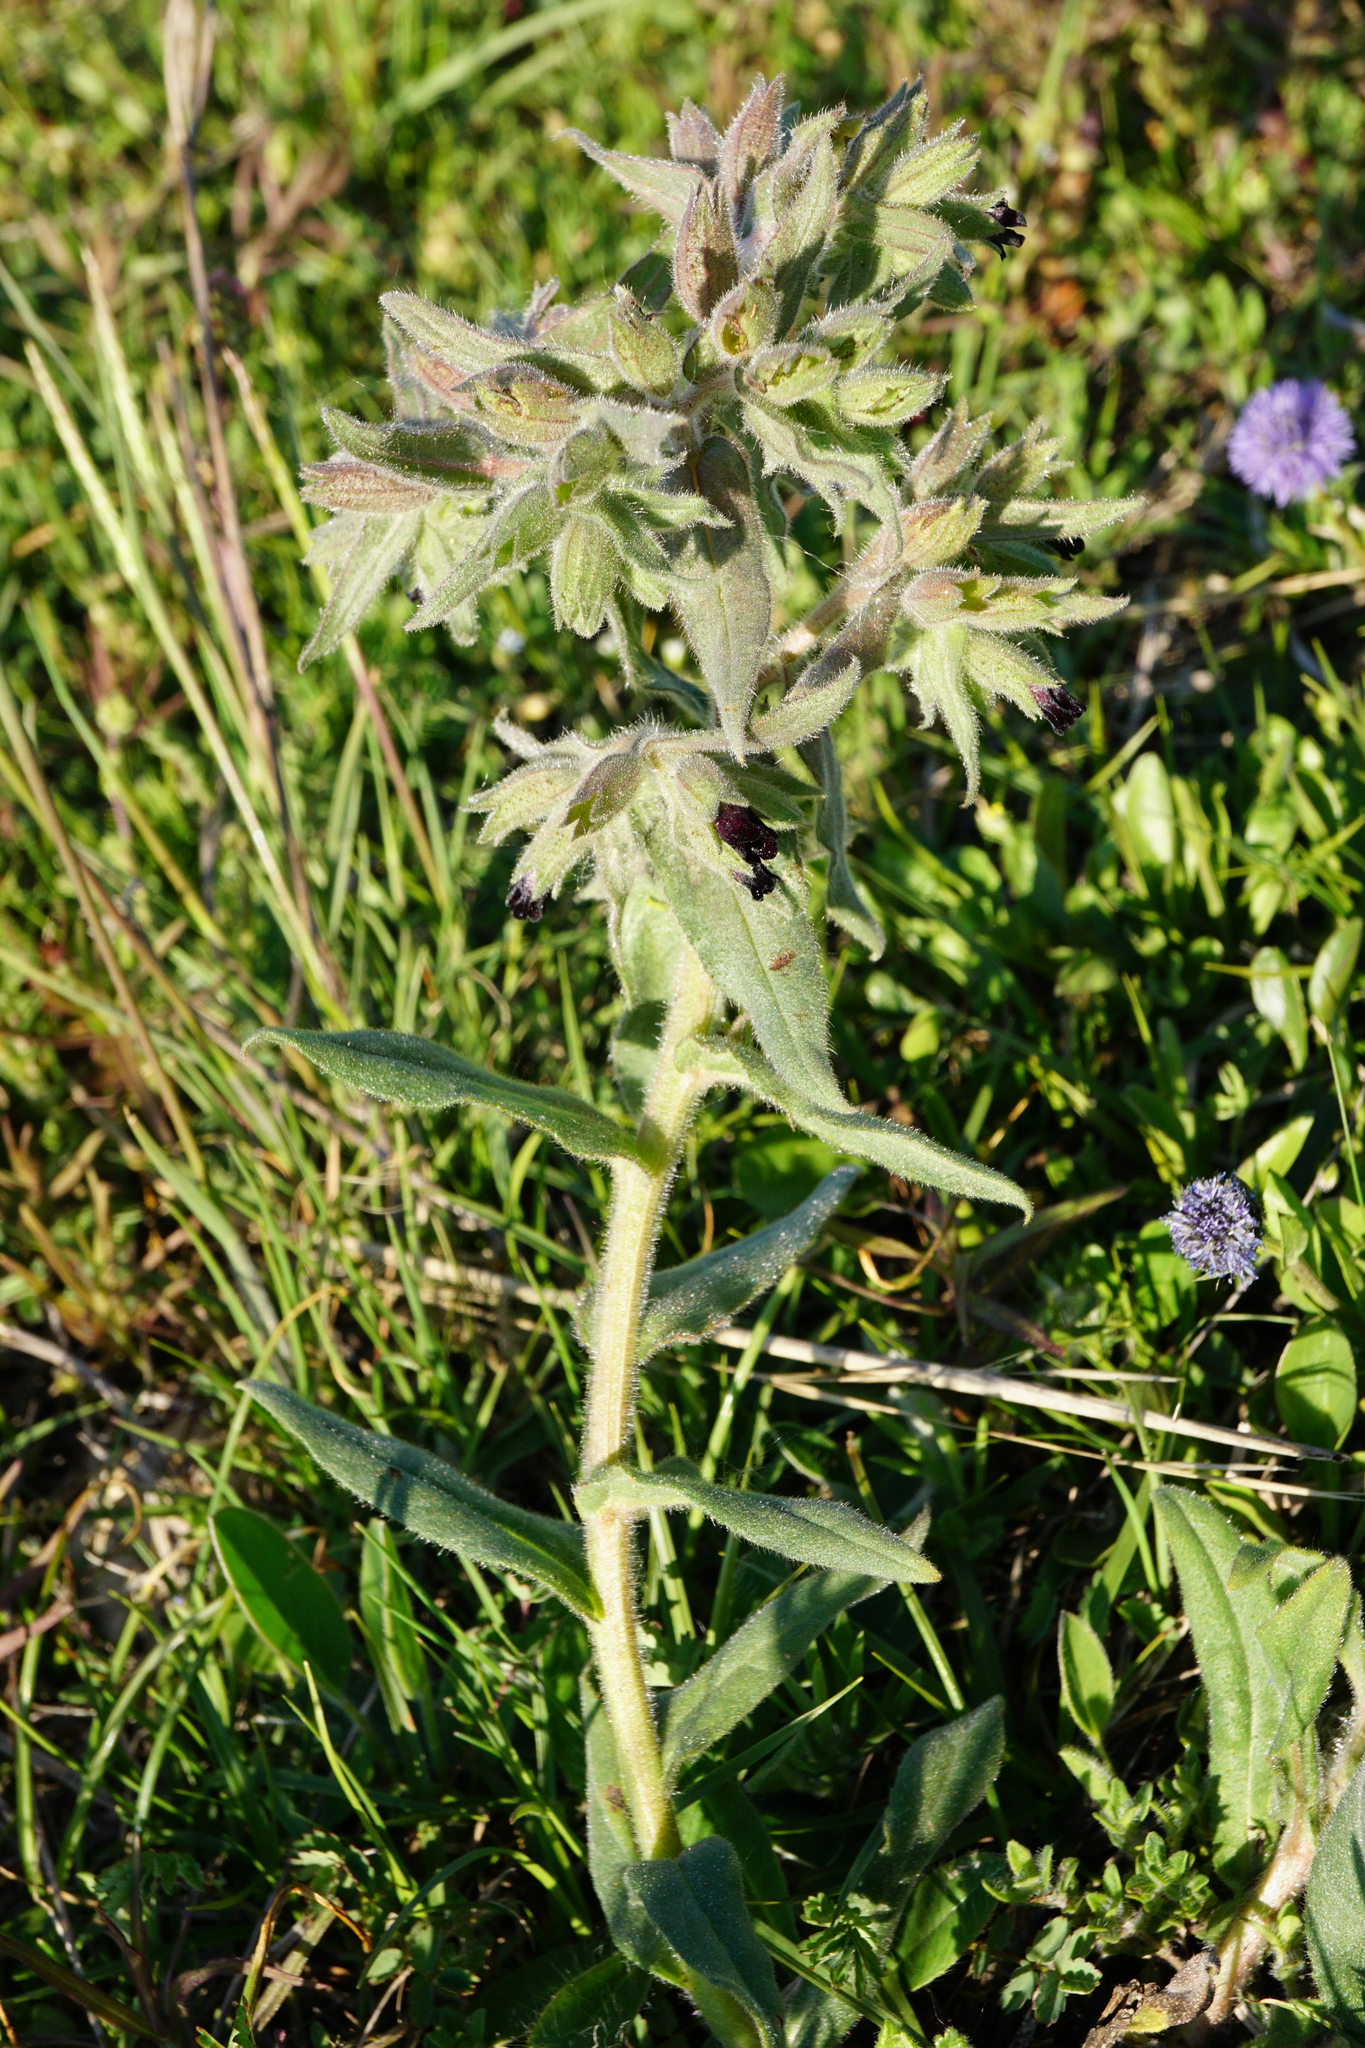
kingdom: Plantae
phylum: Tracheophyta
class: Magnoliopsida
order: Boraginales
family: Boraginaceae
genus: Nonea
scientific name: Nonea pulla
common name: Brown nonea
